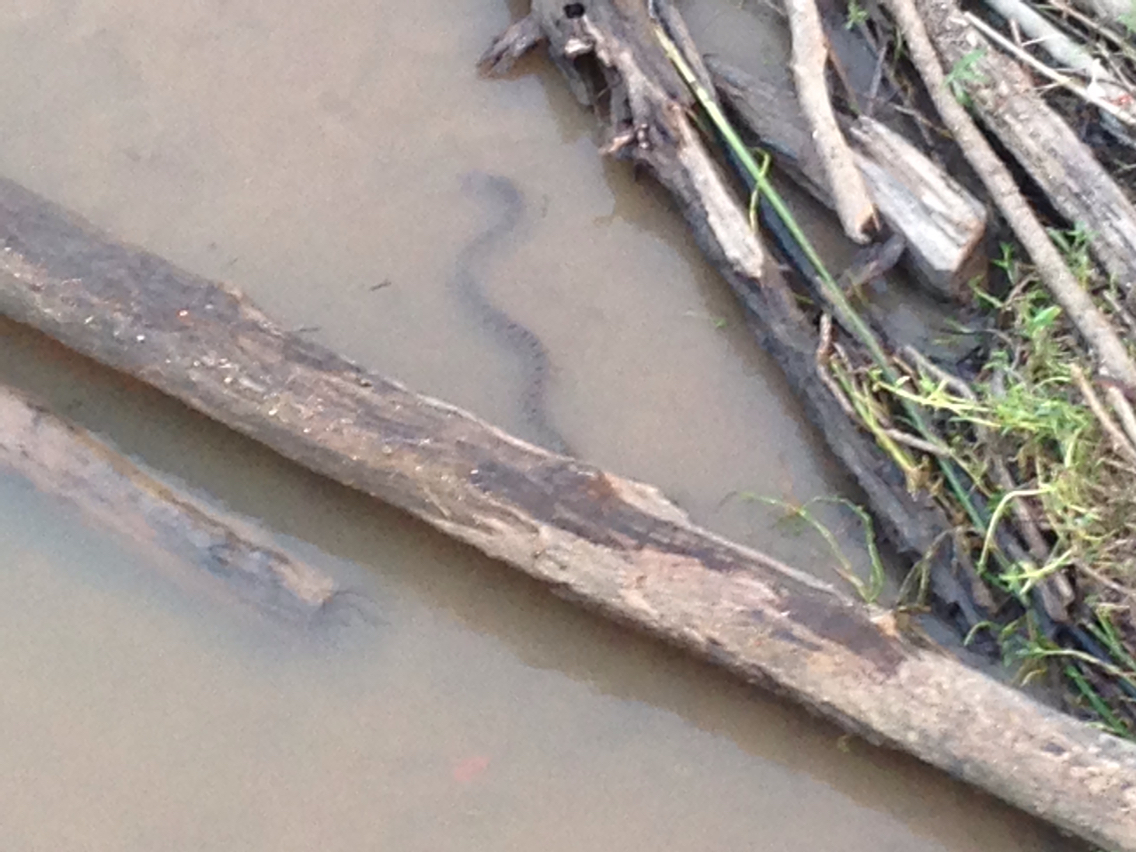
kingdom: Animalia
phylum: Chordata
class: Squamata
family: Colubridae
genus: Nerodia
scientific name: Nerodia rhombifer
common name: Diamondback water snake
